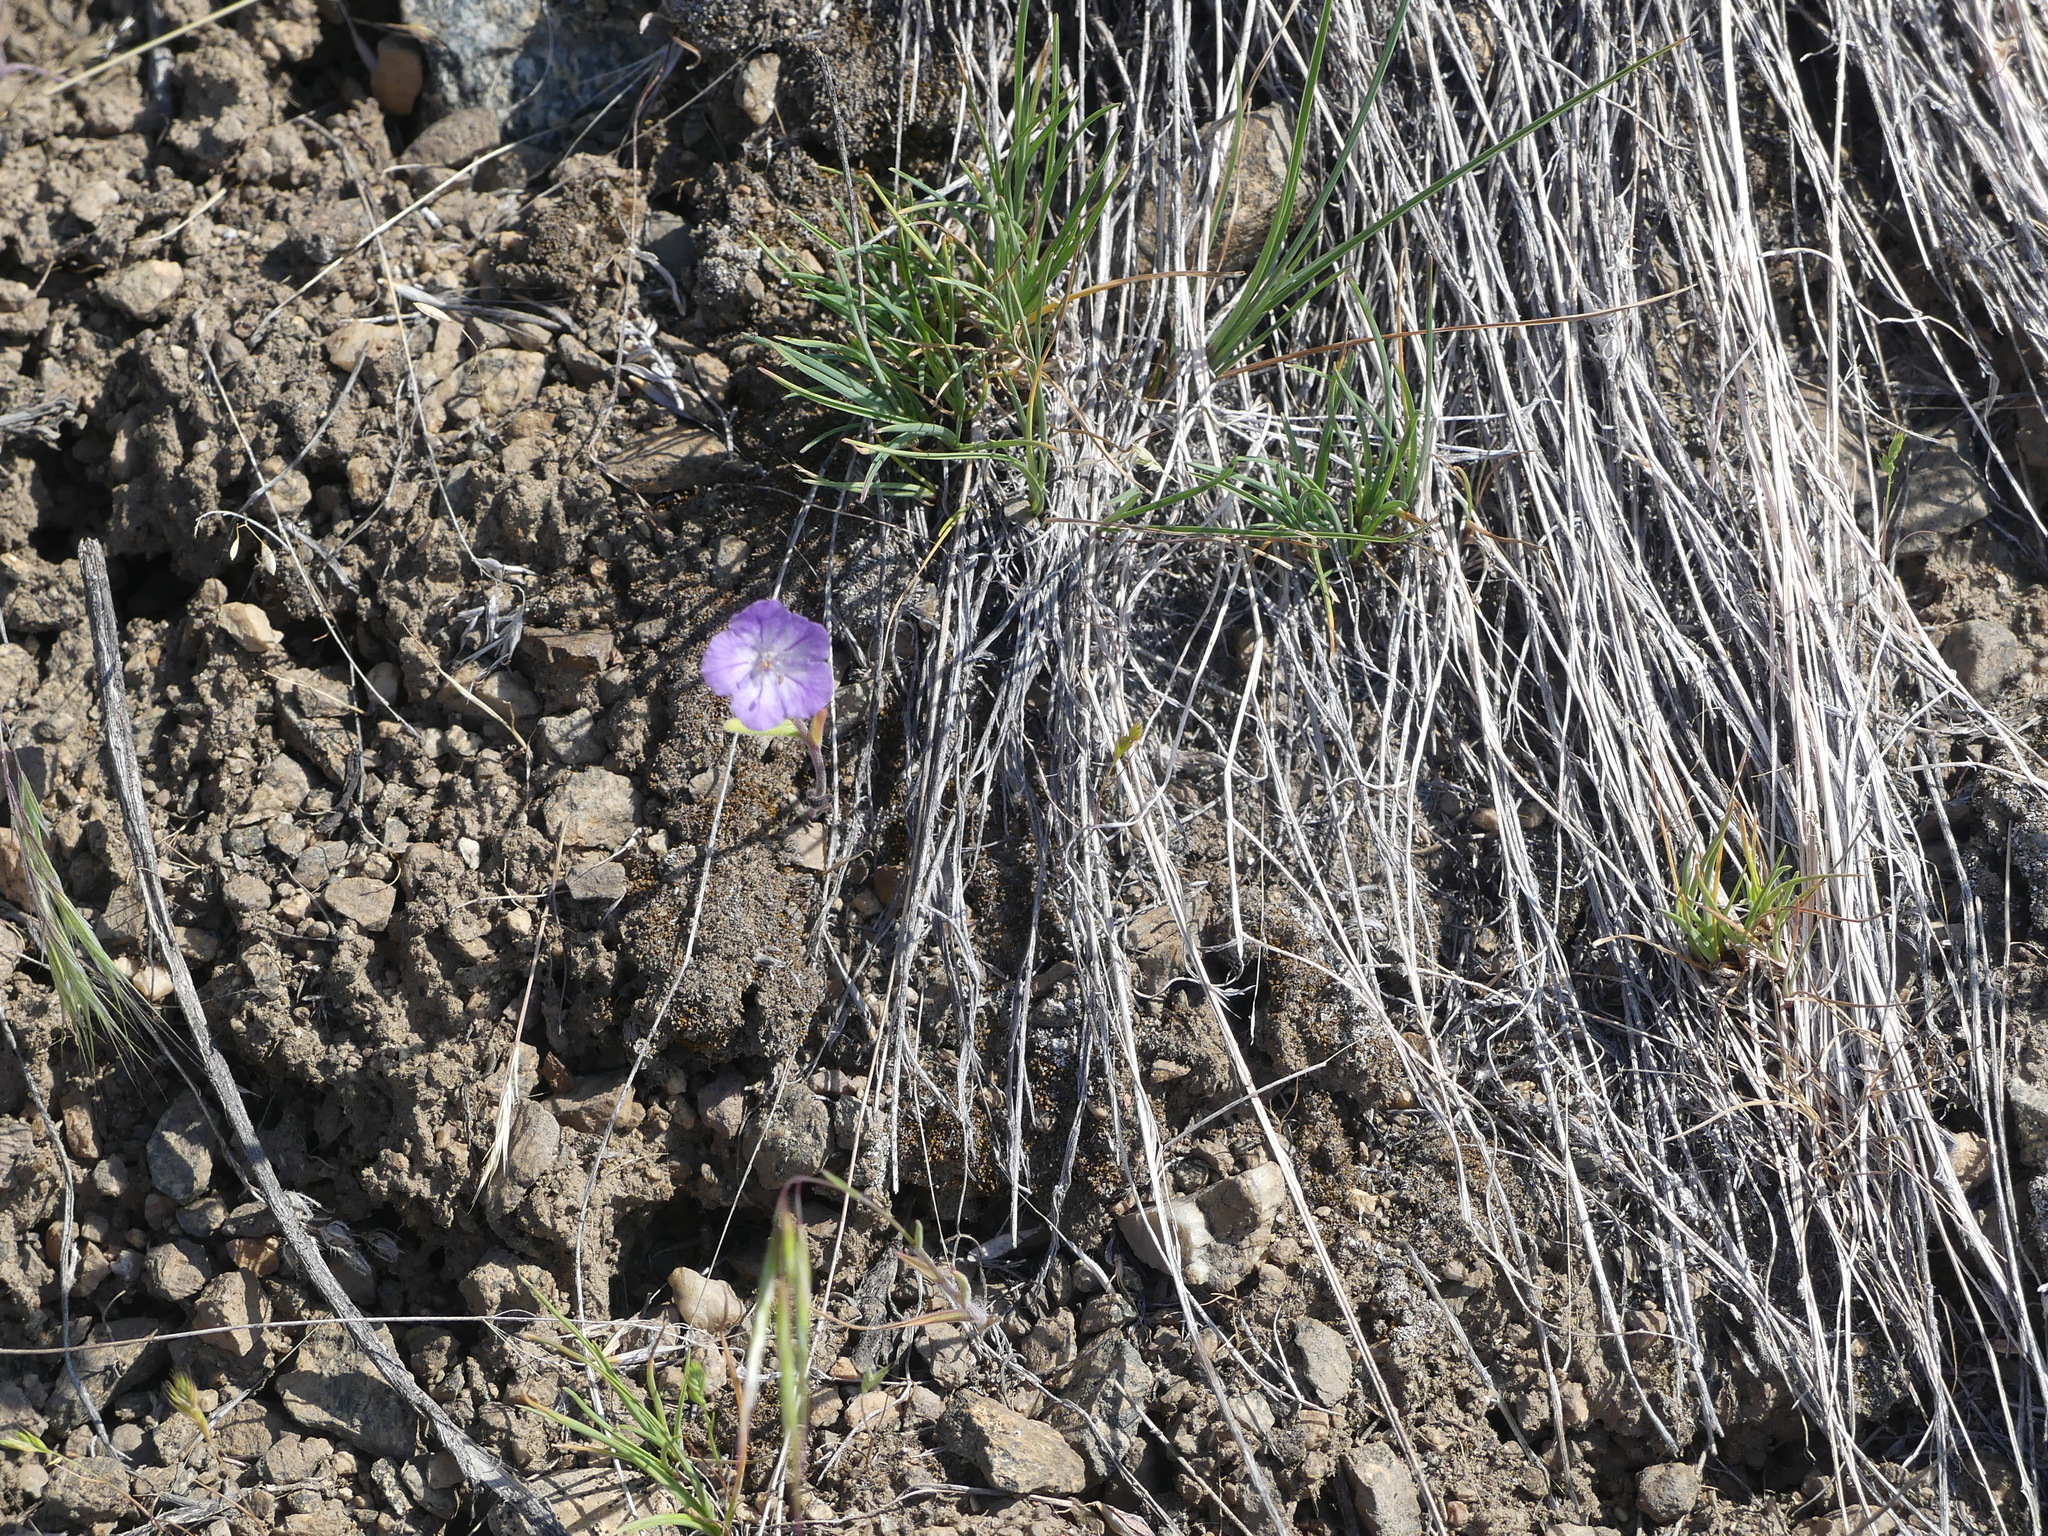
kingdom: Plantae
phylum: Tracheophyta
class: Magnoliopsida
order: Boraginales
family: Hydrophyllaceae
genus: Phacelia
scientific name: Phacelia linearis
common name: Linear-leaved phacelia
